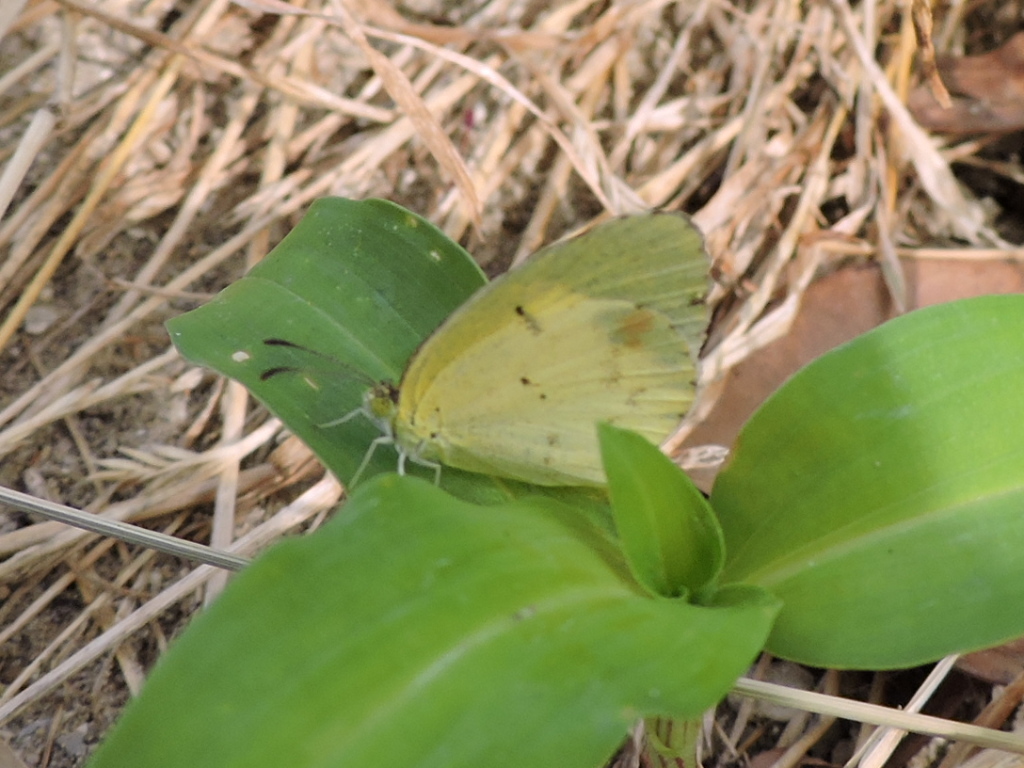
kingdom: Animalia
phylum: Arthropoda
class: Insecta
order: Lepidoptera
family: Pieridae
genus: Pyrisitia
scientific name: Pyrisitia lisa
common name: Little yellow
